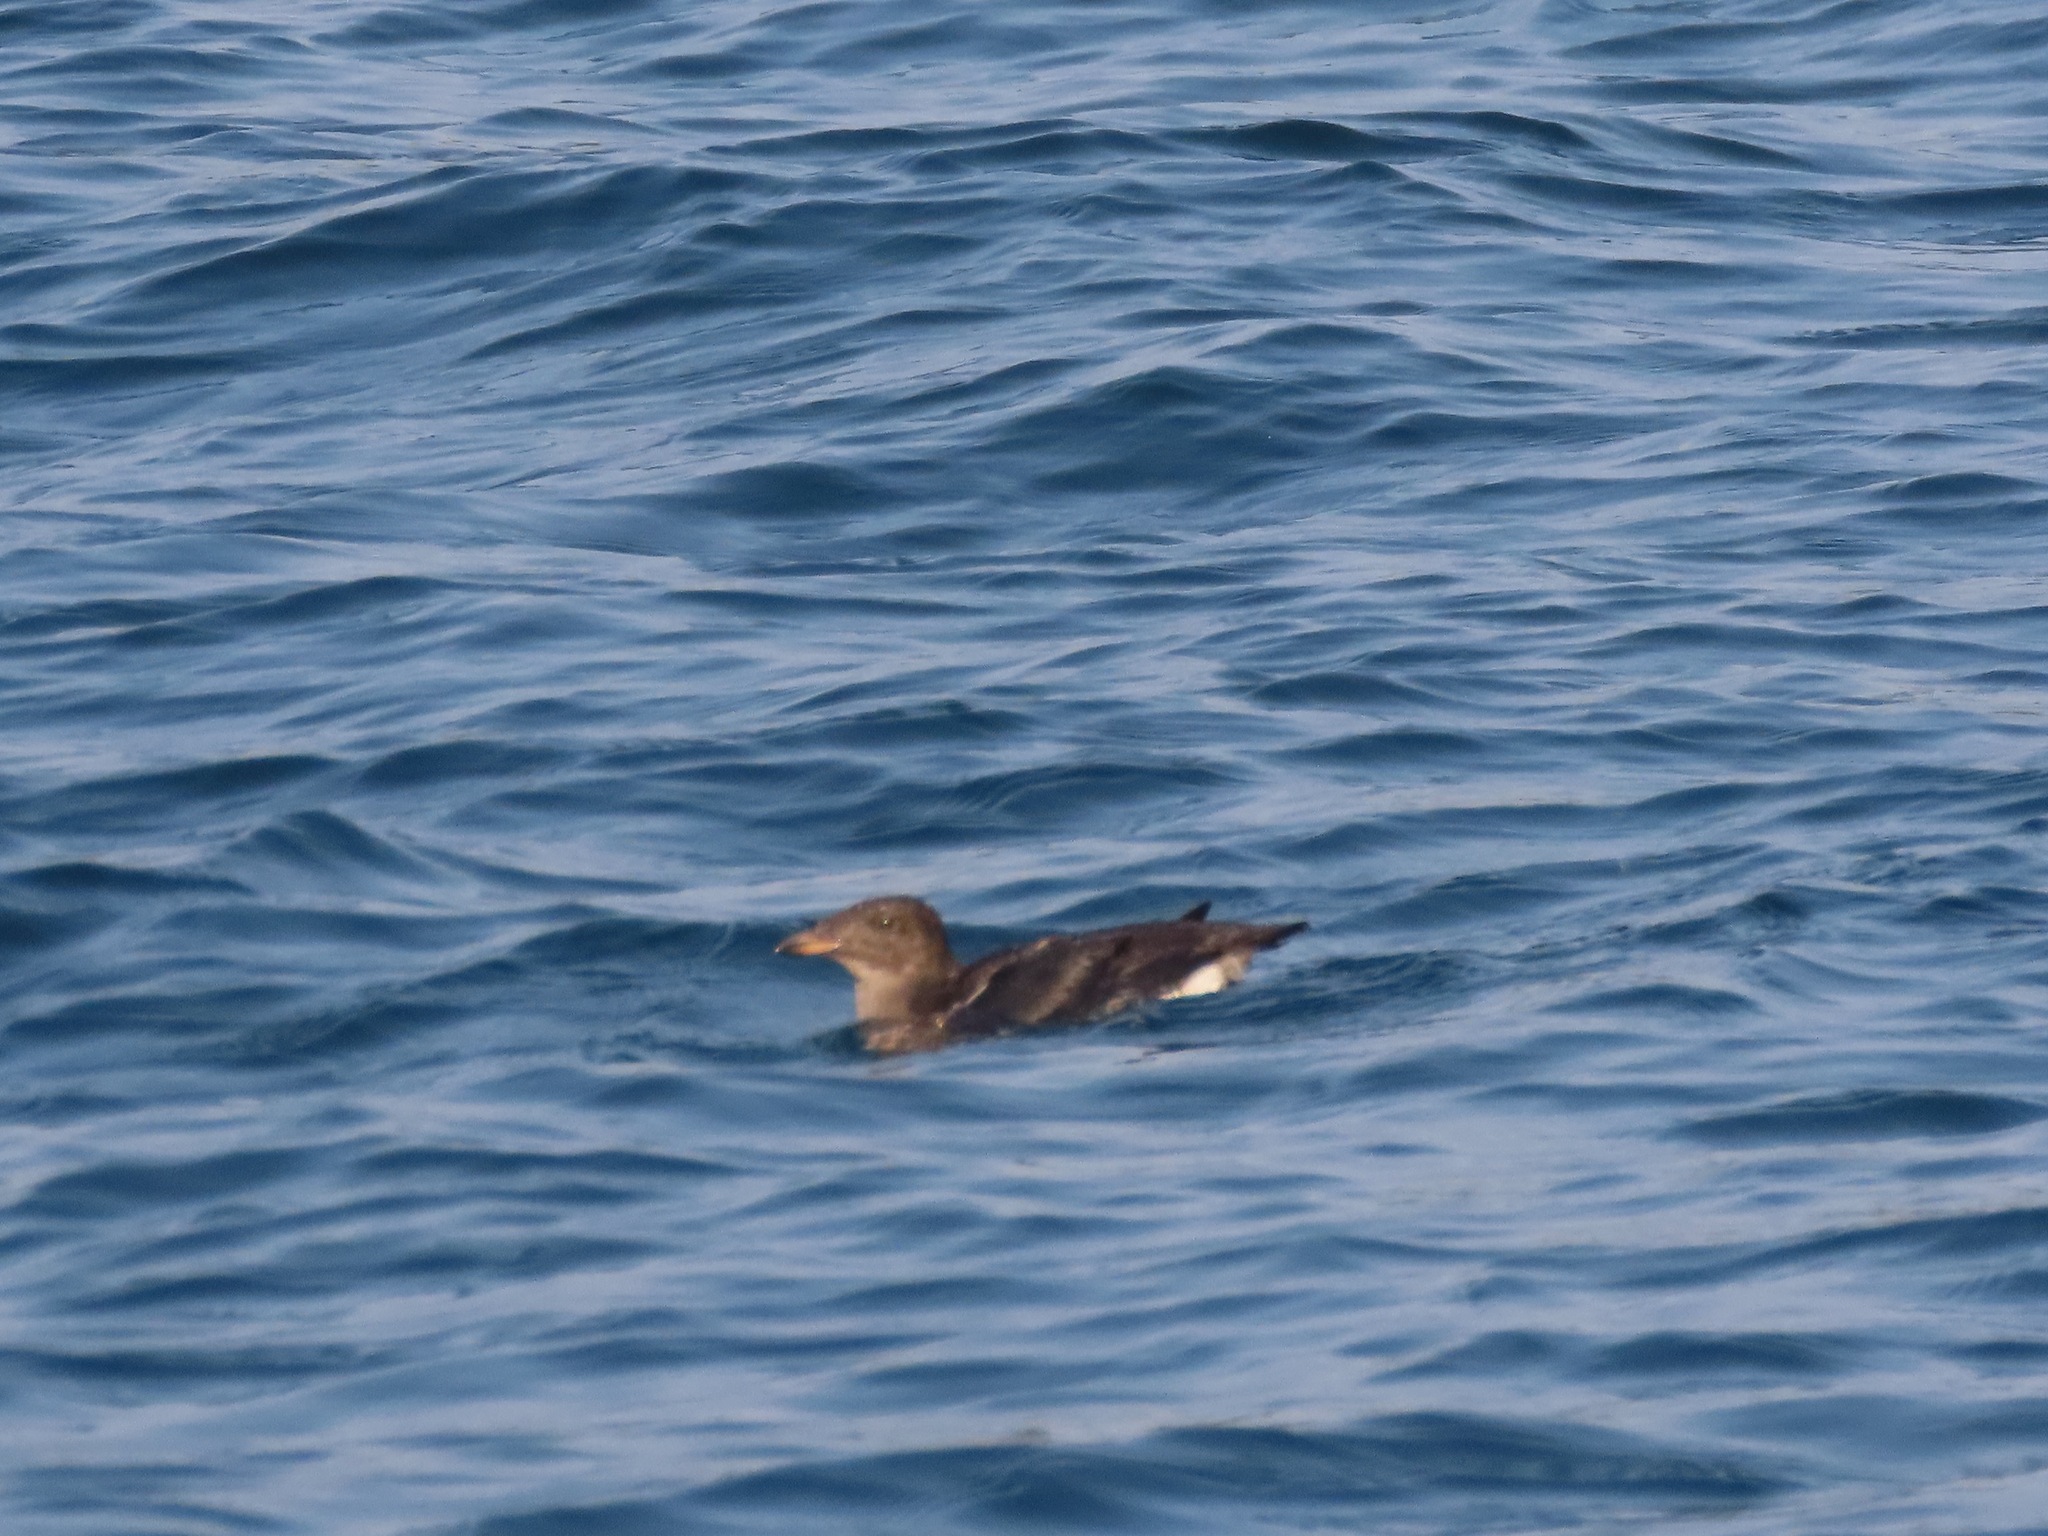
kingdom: Animalia
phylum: Chordata
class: Aves
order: Charadriiformes
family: Alcidae
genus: Cerorhinca
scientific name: Cerorhinca monocerata
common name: Rhinoceros auklet
